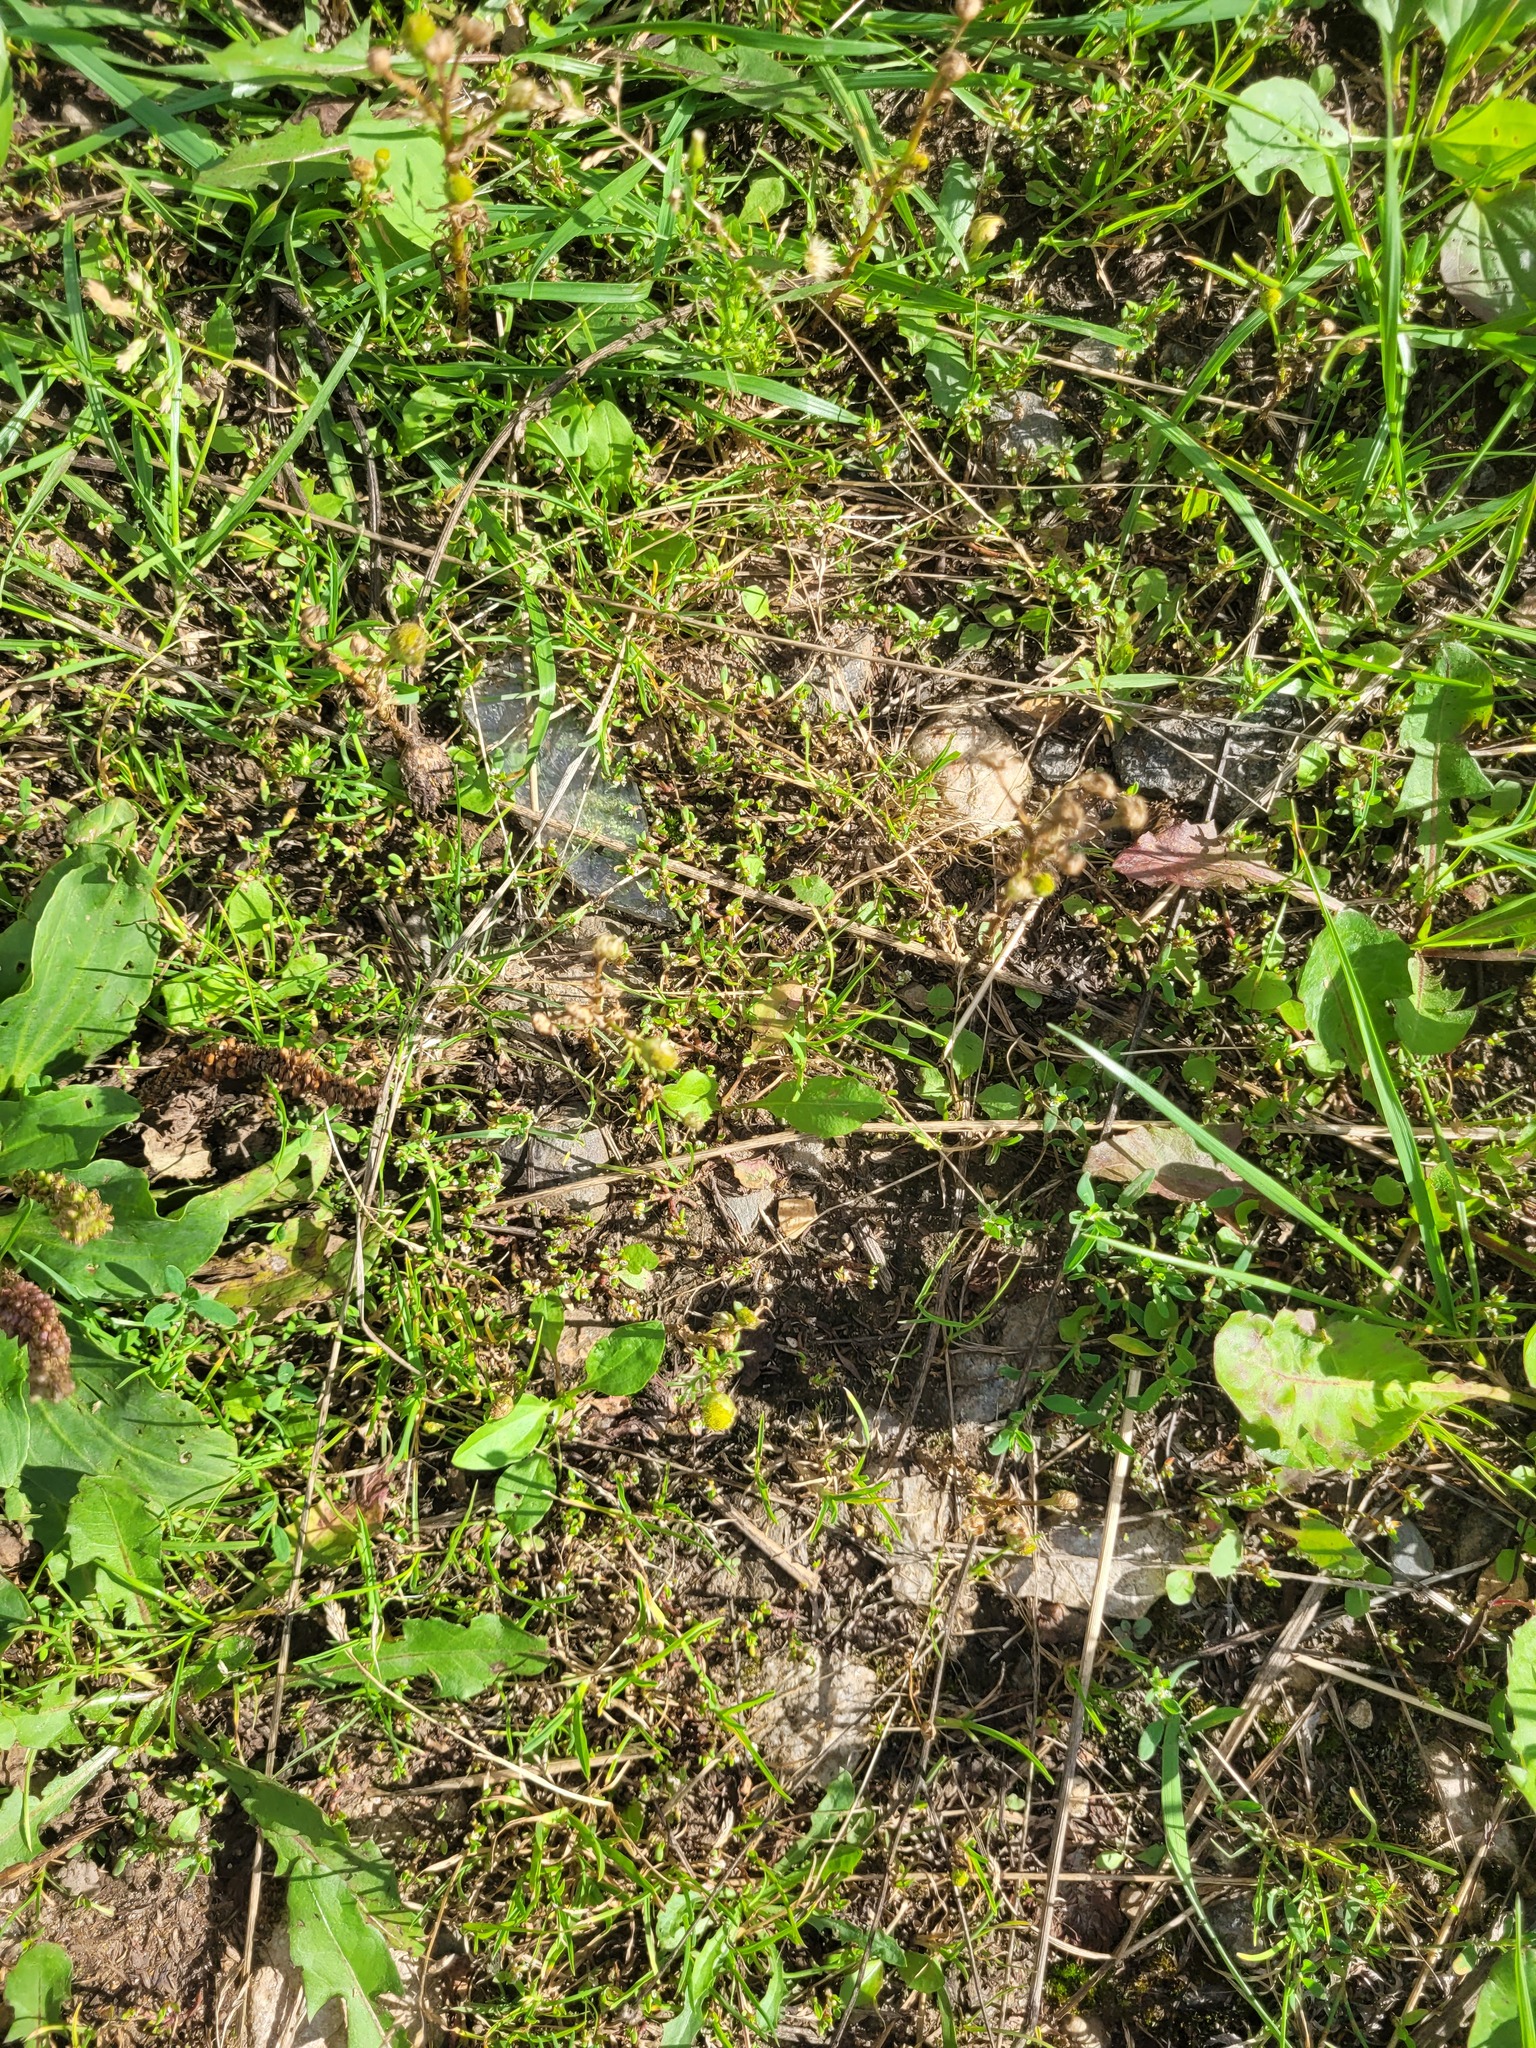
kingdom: Plantae
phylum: Tracheophyta
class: Magnoliopsida
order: Asterales
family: Asteraceae
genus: Matricaria
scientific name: Matricaria discoidea
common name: Disc mayweed
